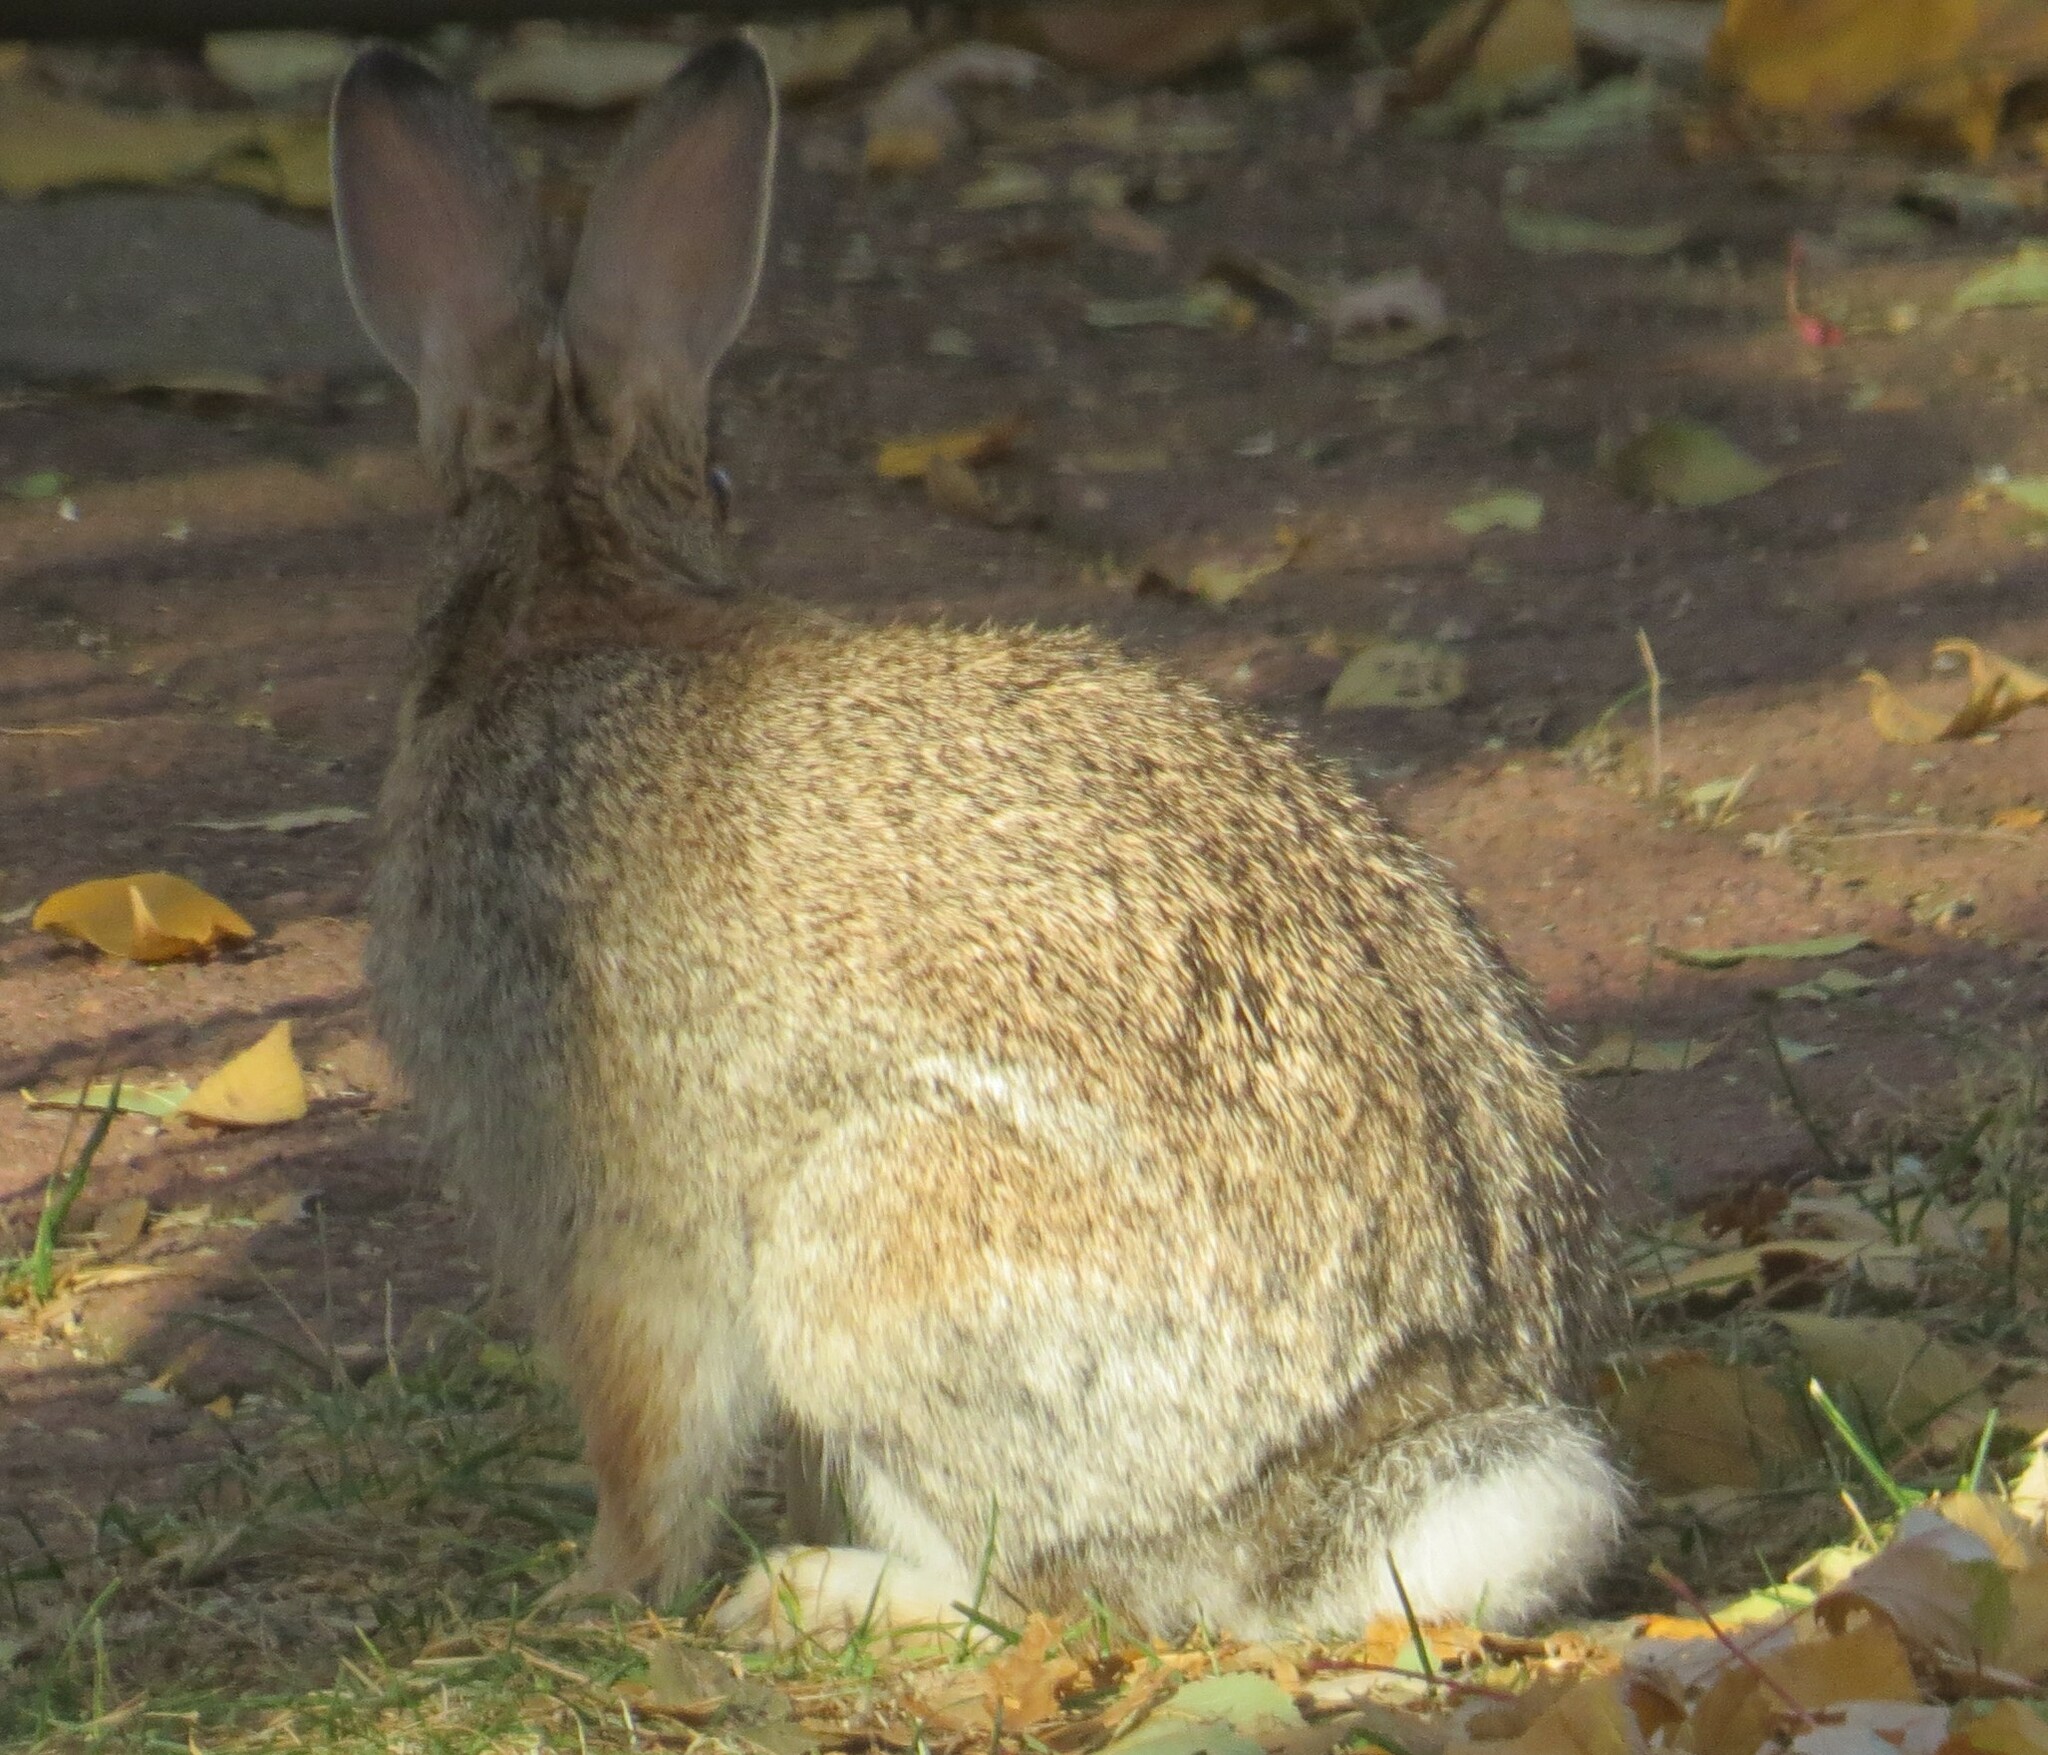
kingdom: Animalia
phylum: Chordata
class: Mammalia
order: Lagomorpha
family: Leporidae
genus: Sylvilagus
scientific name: Sylvilagus floridanus
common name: Eastern cottontail
